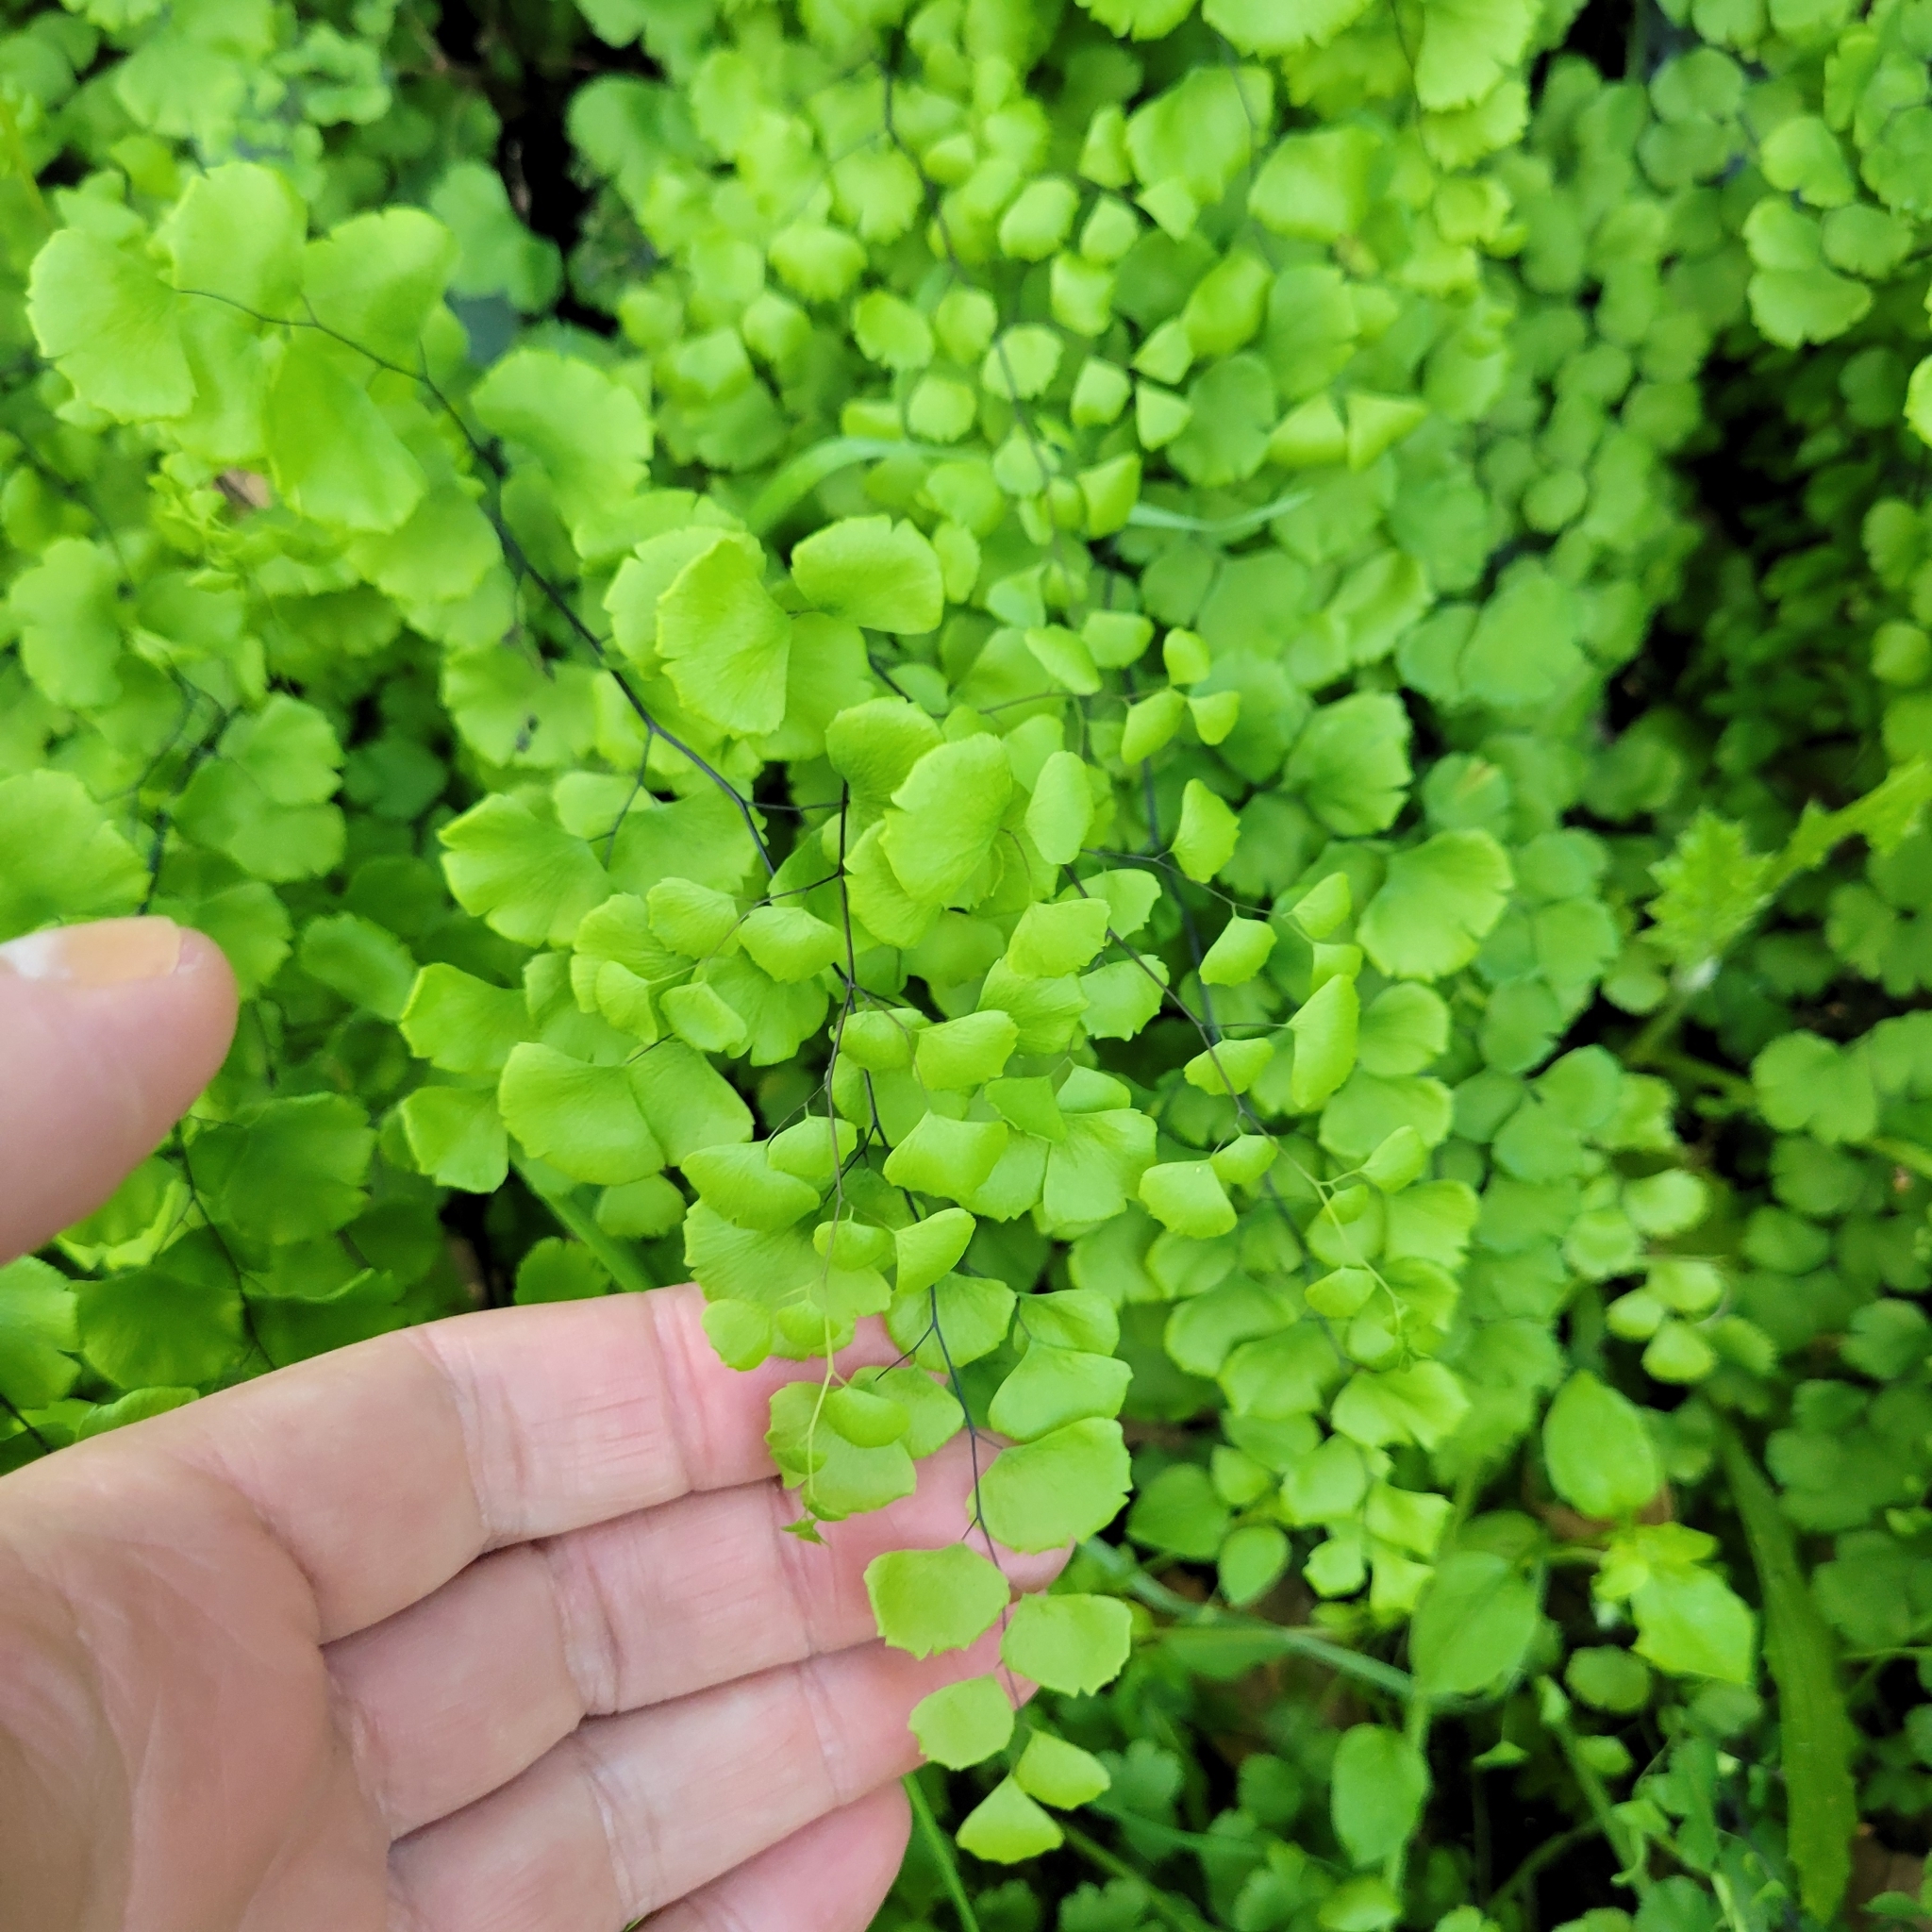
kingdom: Plantae
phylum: Tracheophyta
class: Polypodiopsida
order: Polypodiales
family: Pteridaceae
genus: Adiantum
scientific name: Adiantum jordanii
